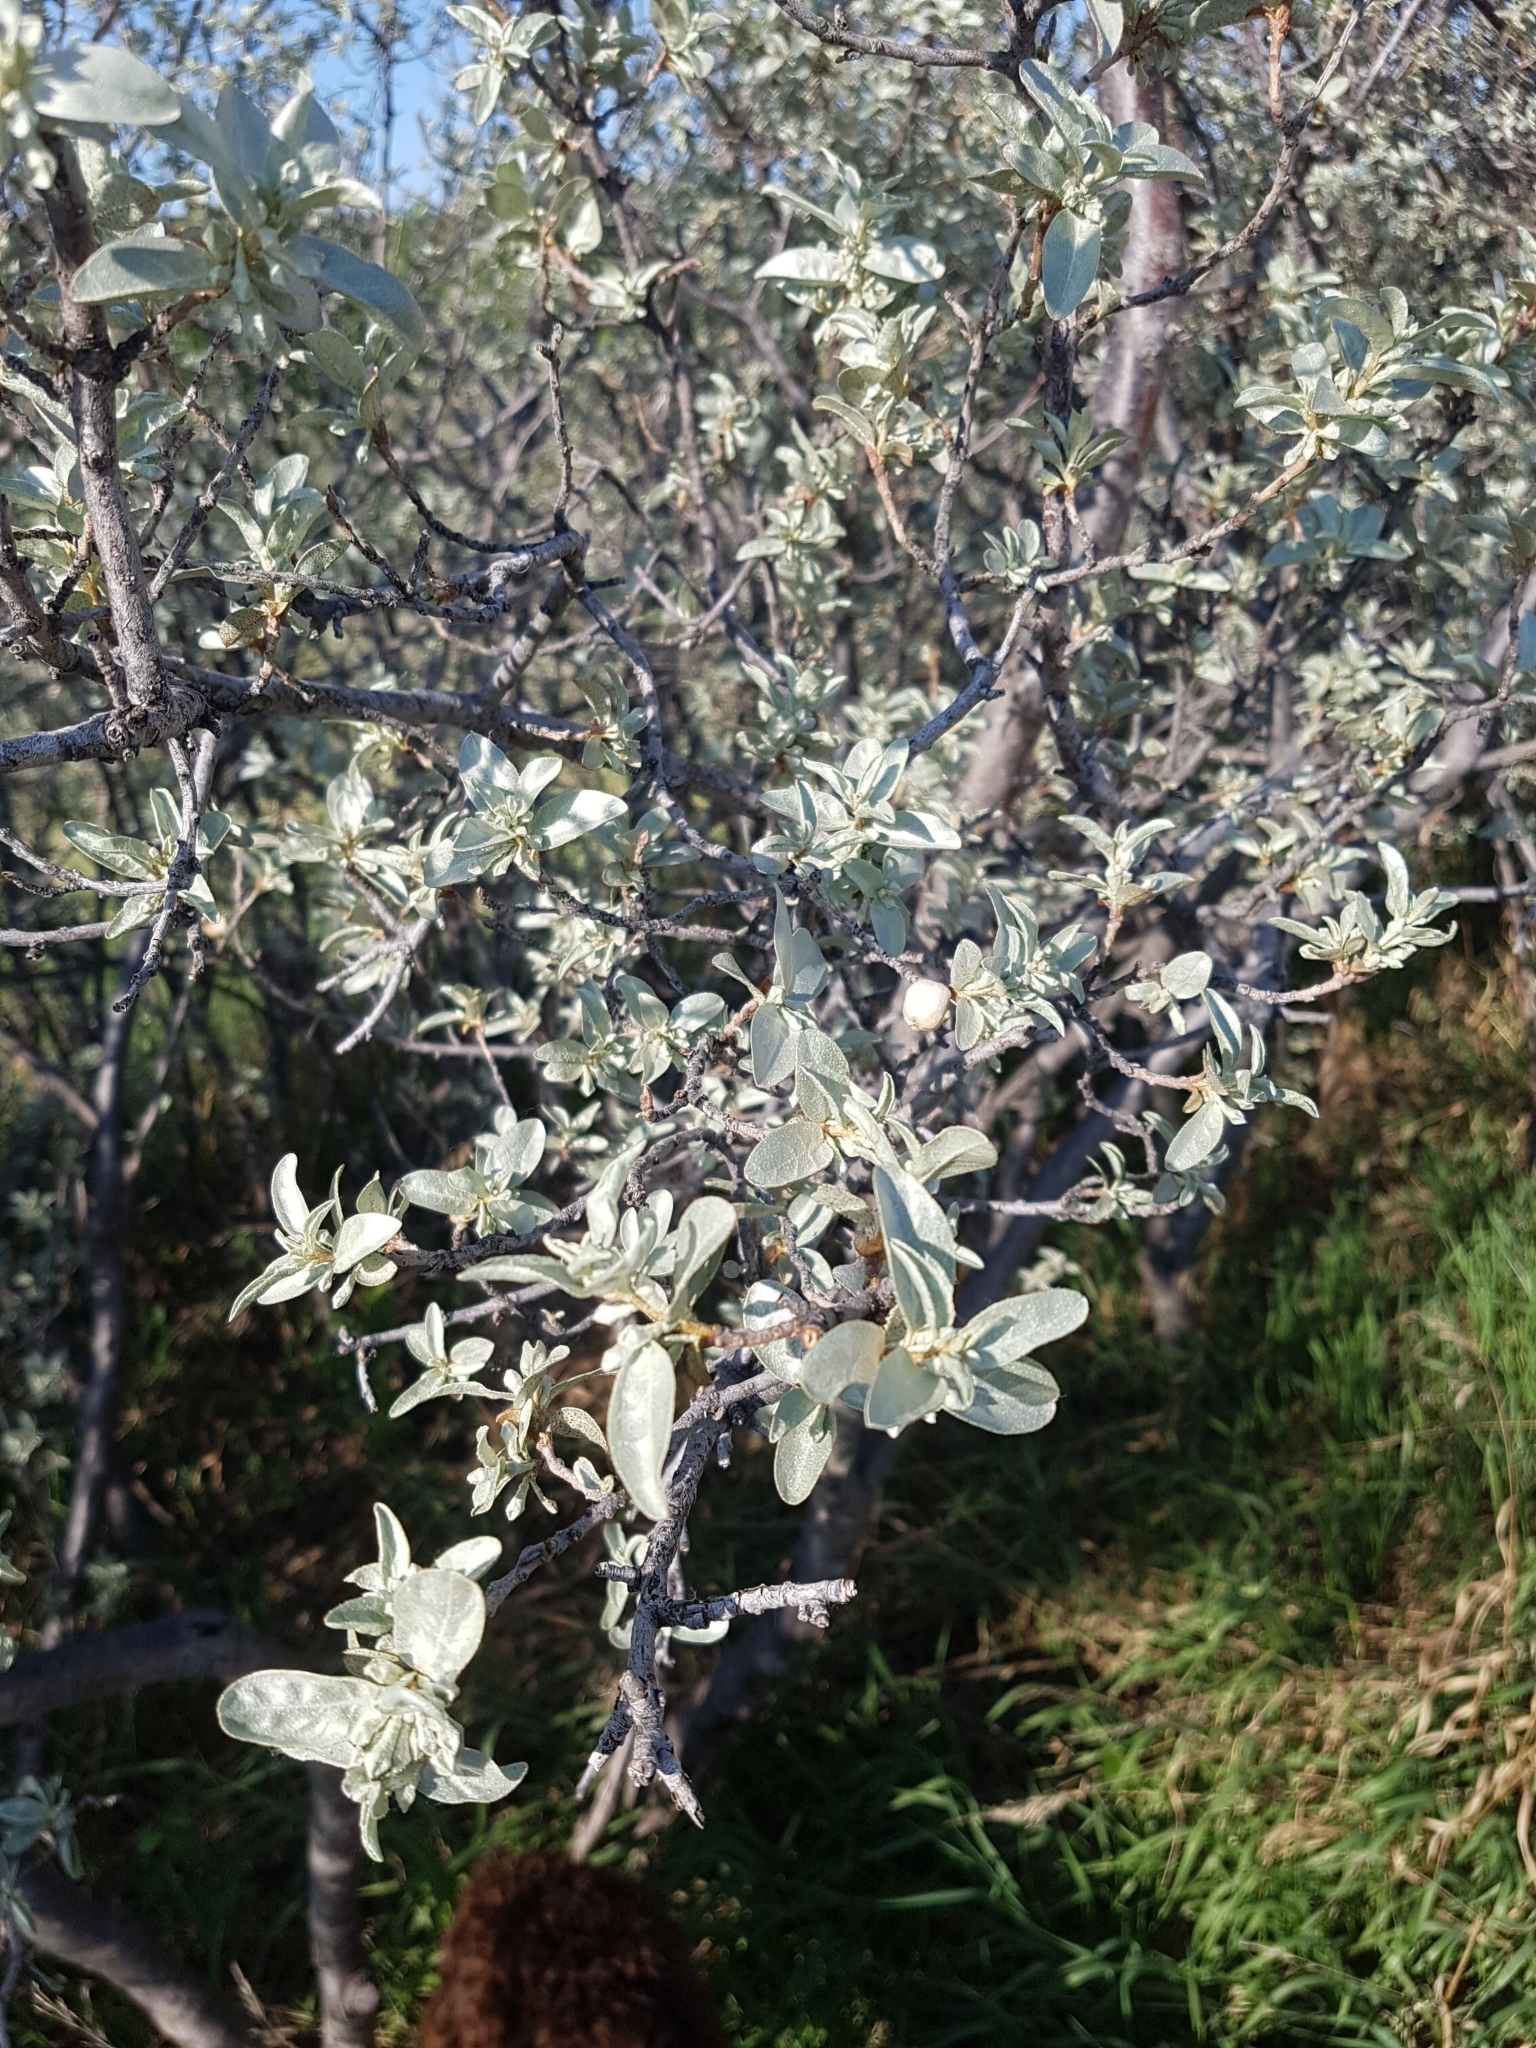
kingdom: Plantae
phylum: Tracheophyta
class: Magnoliopsida
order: Rosales
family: Elaeagnaceae
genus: Elaeagnus
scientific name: Elaeagnus commutata
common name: Silverberry
